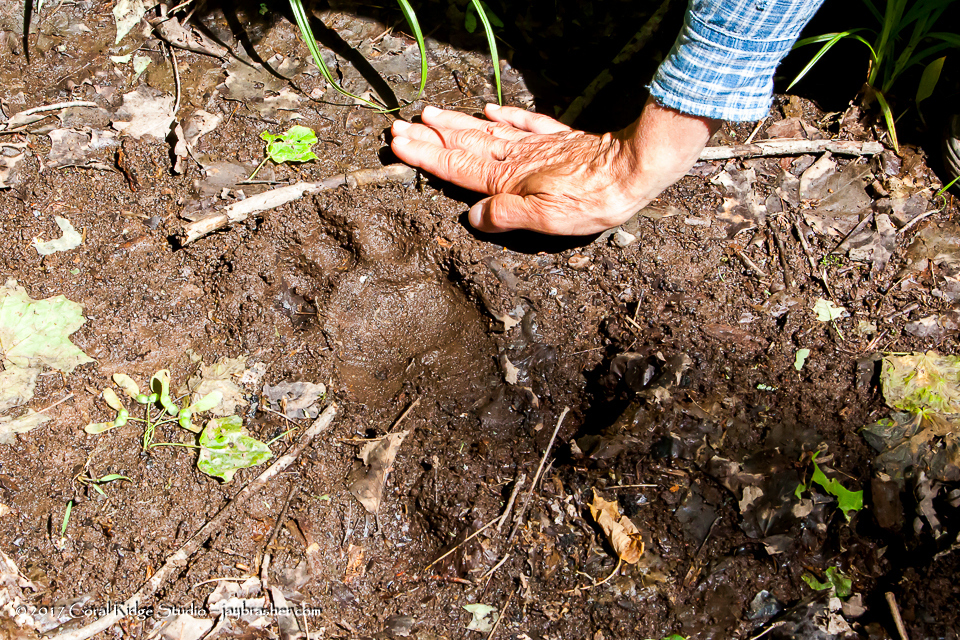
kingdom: Animalia
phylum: Chordata
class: Mammalia
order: Carnivora
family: Ursidae
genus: Ursus
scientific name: Ursus americanus
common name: American black bear
